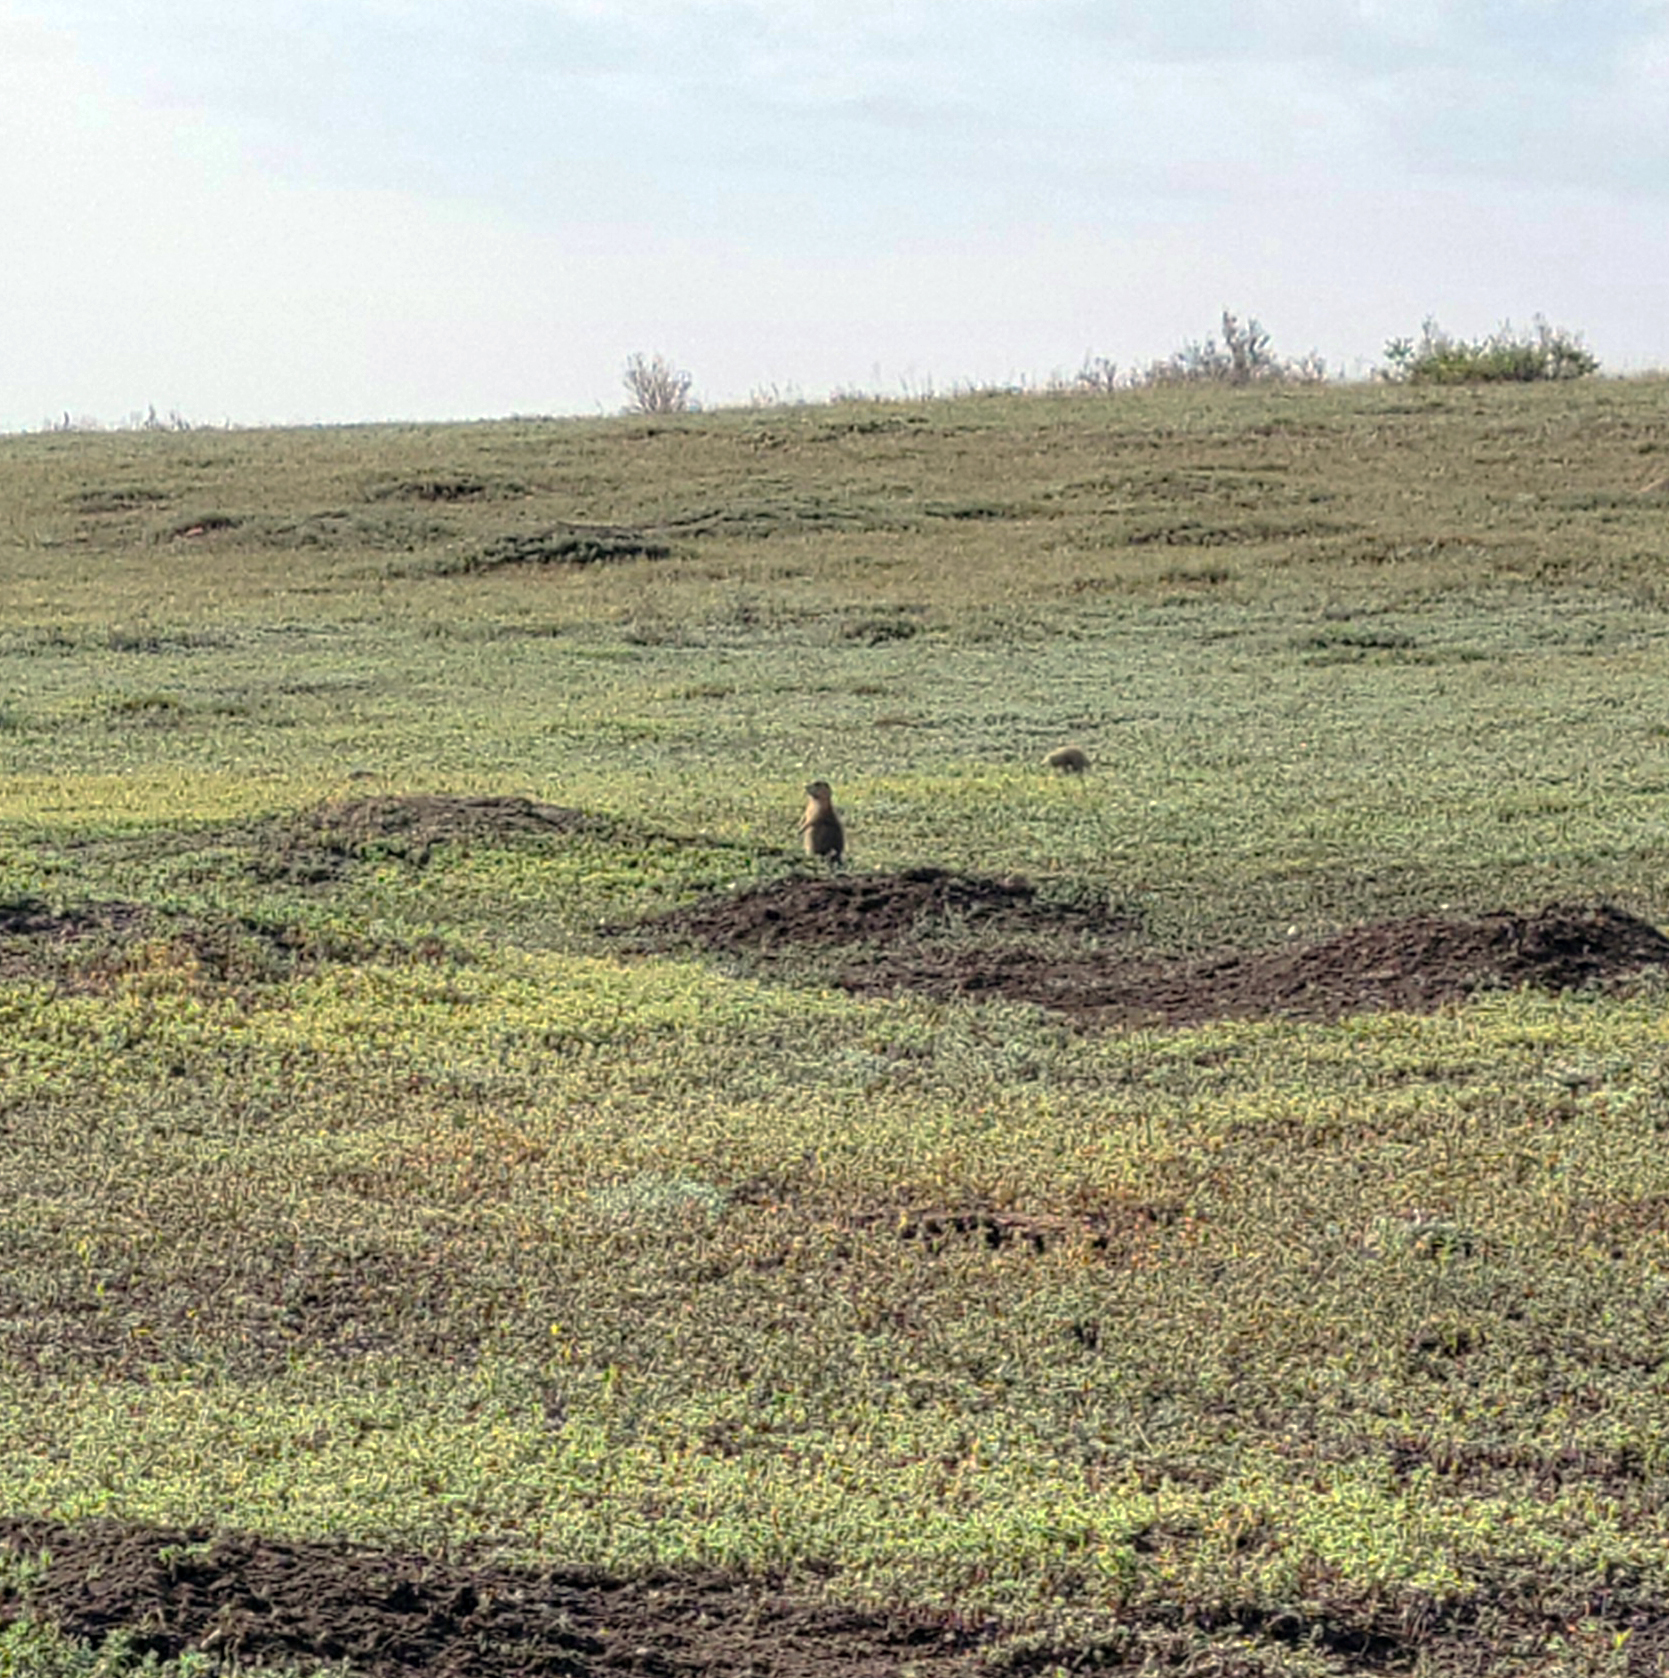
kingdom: Animalia
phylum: Chordata
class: Mammalia
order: Rodentia
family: Sciuridae
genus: Cynomys
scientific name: Cynomys ludovicianus
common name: Black-tailed prairie dog
